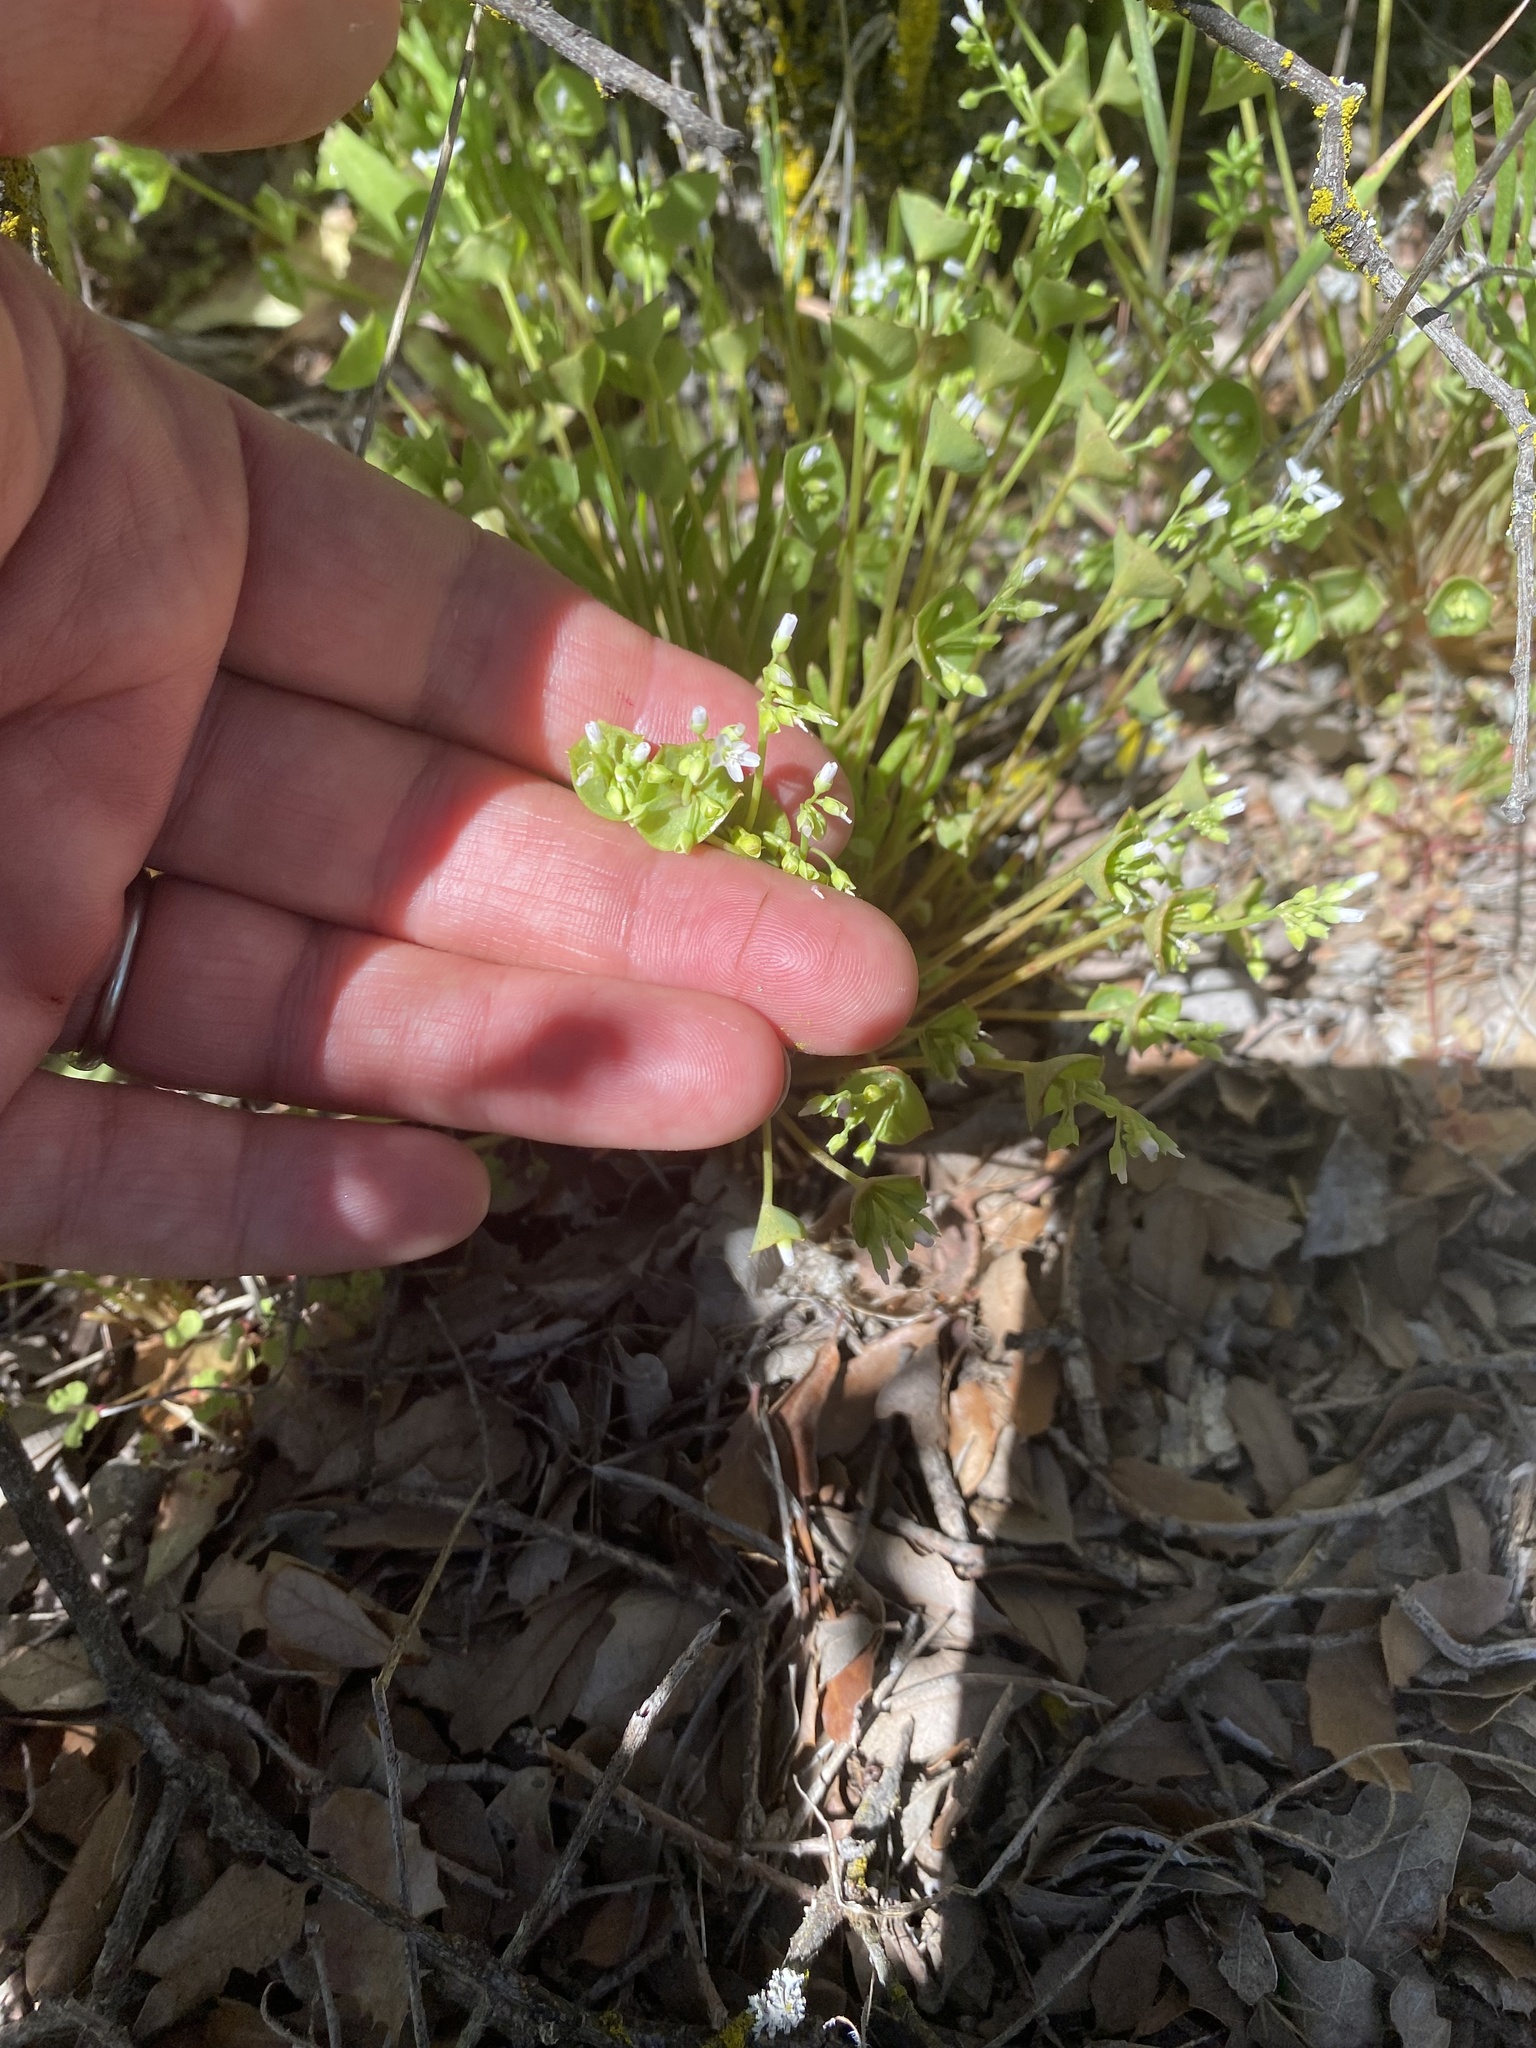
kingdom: Plantae
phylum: Tracheophyta
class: Magnoliopsida
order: Caryophyllales
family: Montiaceae
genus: Claytonia
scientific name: Claytonia perfoliata
